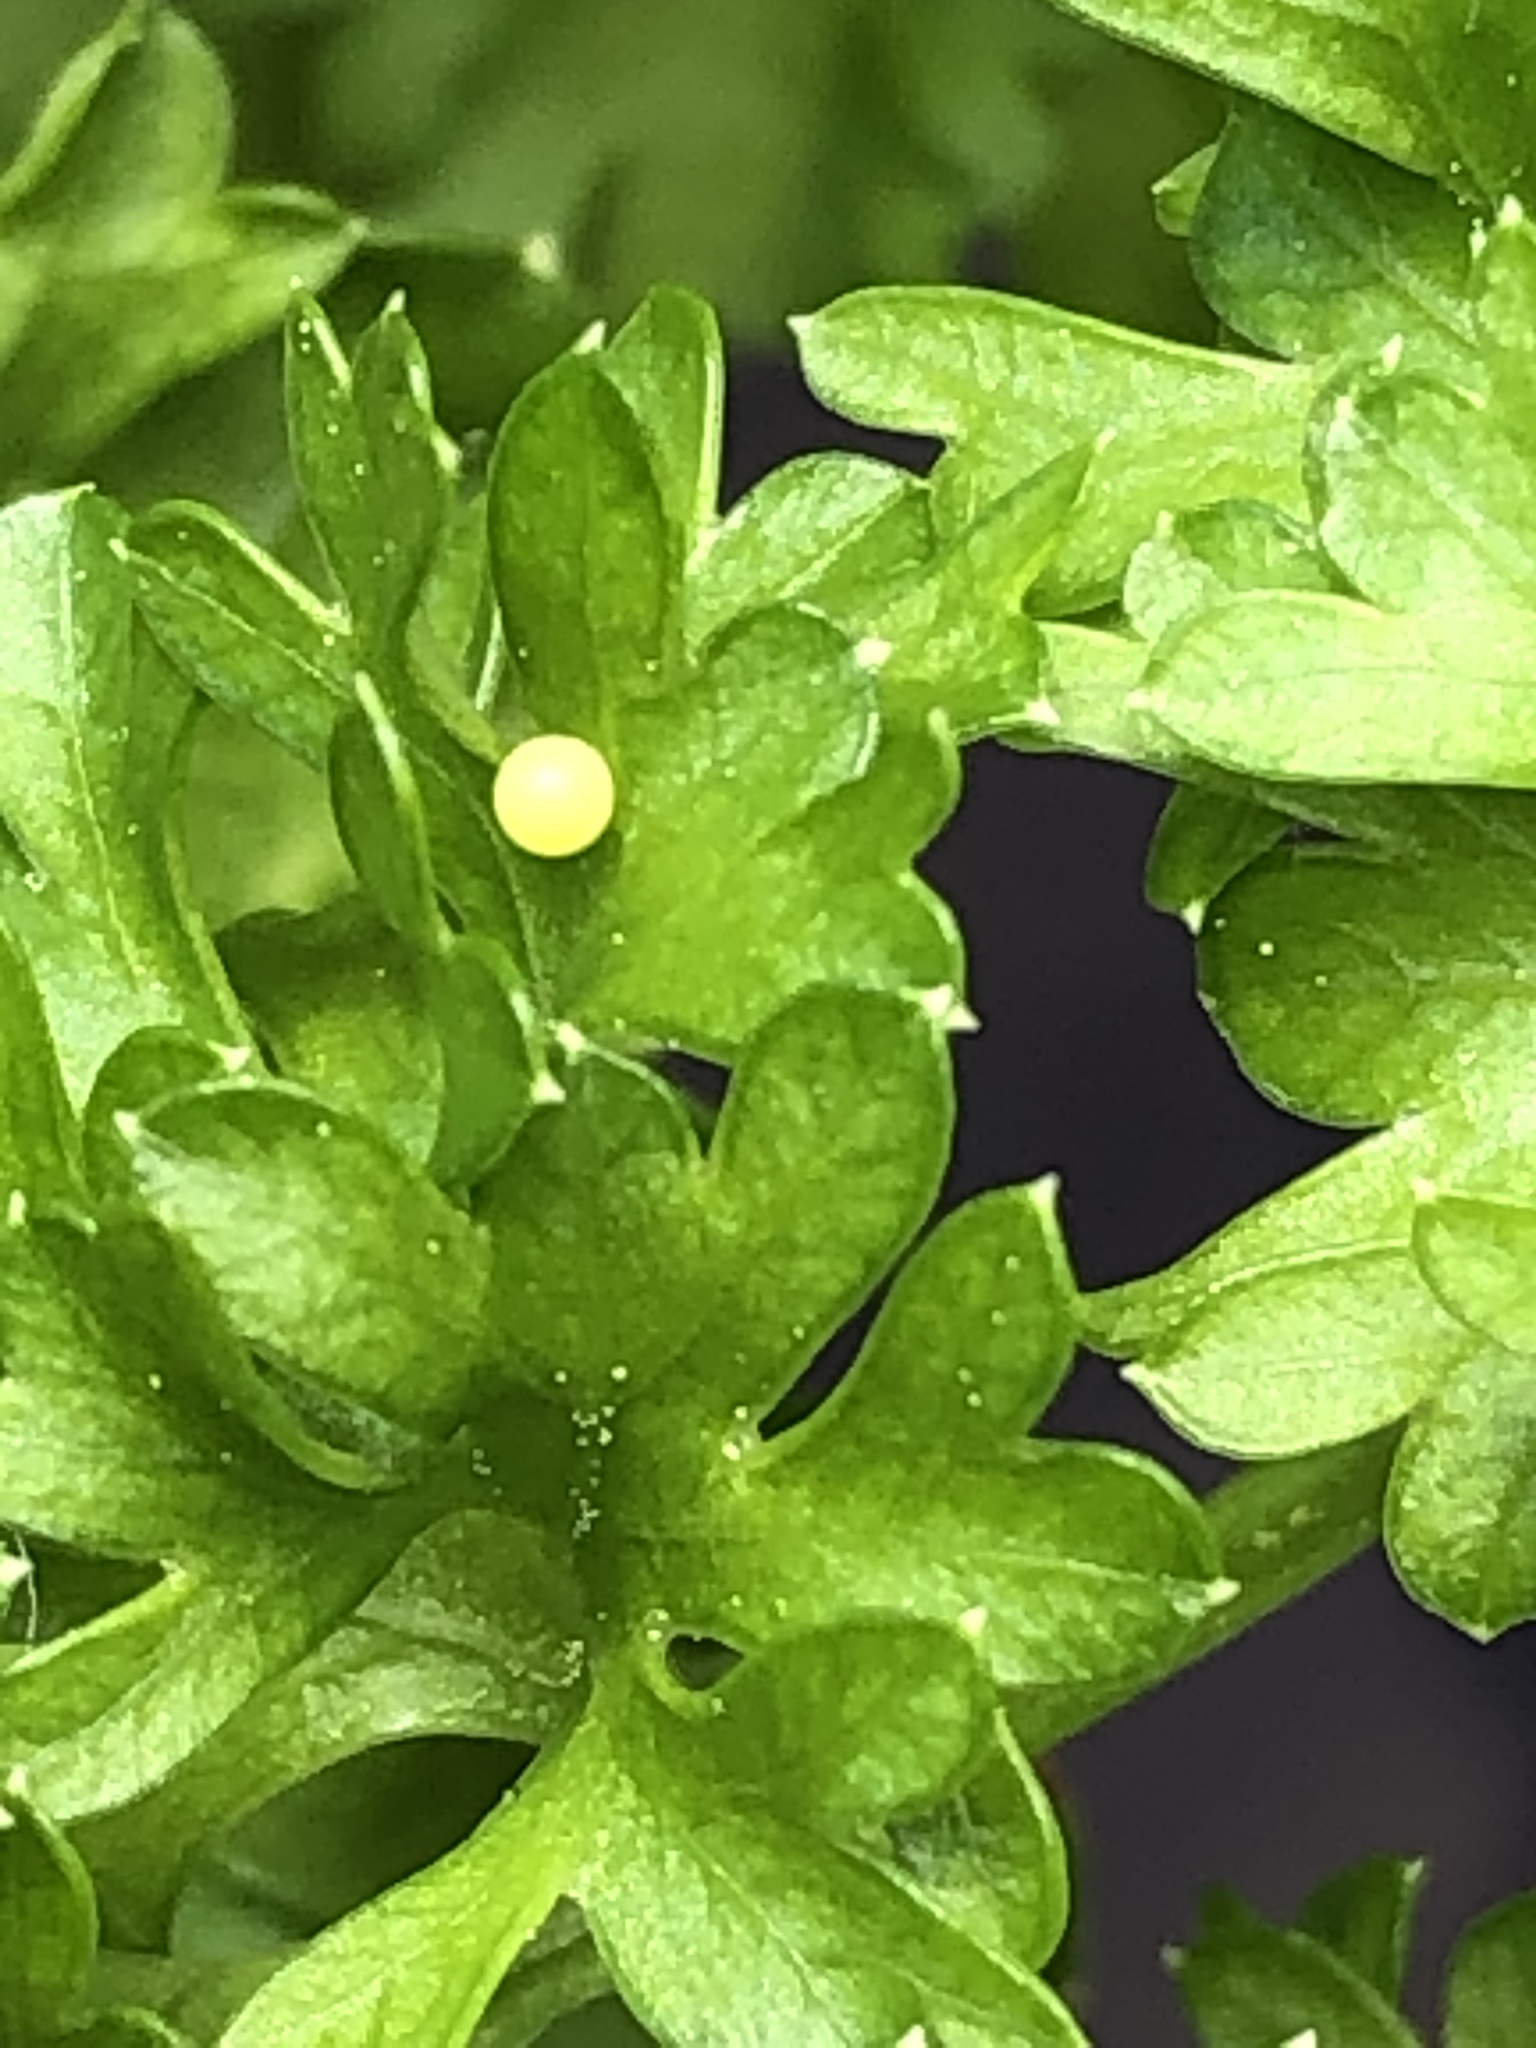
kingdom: Animalia
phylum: Arthropoda
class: Insecta
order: Lepidoptera
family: Papilionidae
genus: Papilio
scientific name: Papilio polyxenes
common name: Black swallowtail
